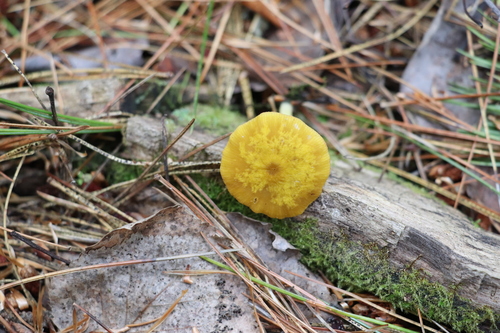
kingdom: Fungi
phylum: Basidiomycota
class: Agaricomycetes
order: Agaricales
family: Pluteaceae
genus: Pluteus
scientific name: Pluteus chrysophlebius
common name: Yellow deer mushroom
